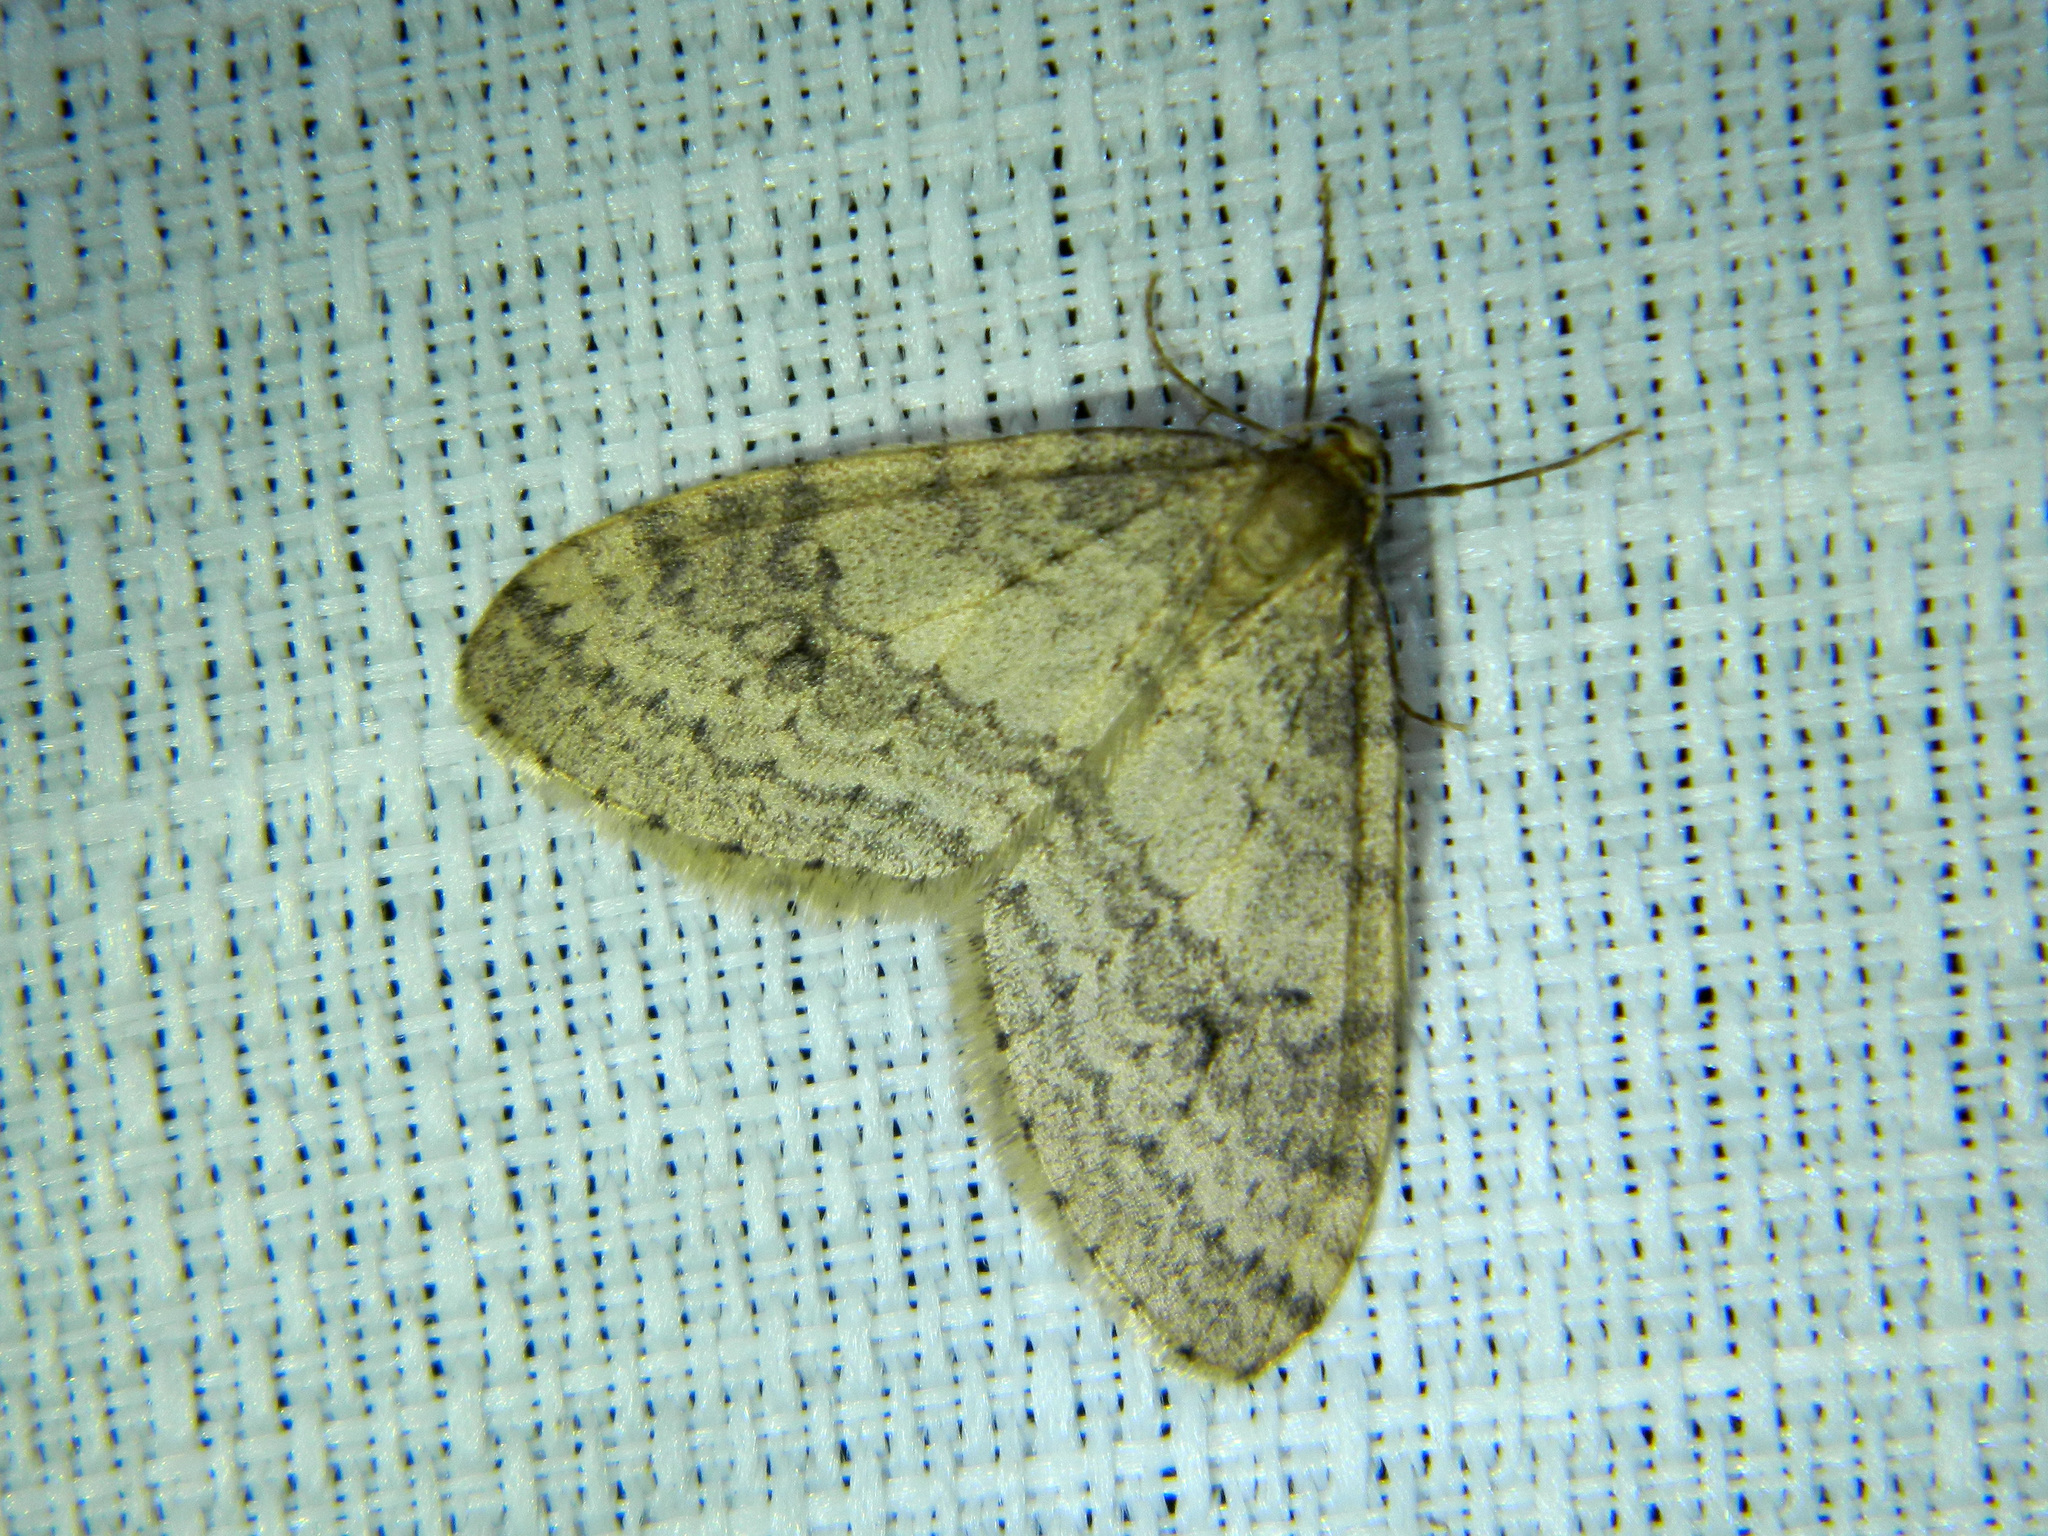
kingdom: Animalia
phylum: Arthropoda
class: Insecta
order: Lepidoptera
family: Geometridae
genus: Operophtera
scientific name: Operophtera bruceata
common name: Bruce spanworm
